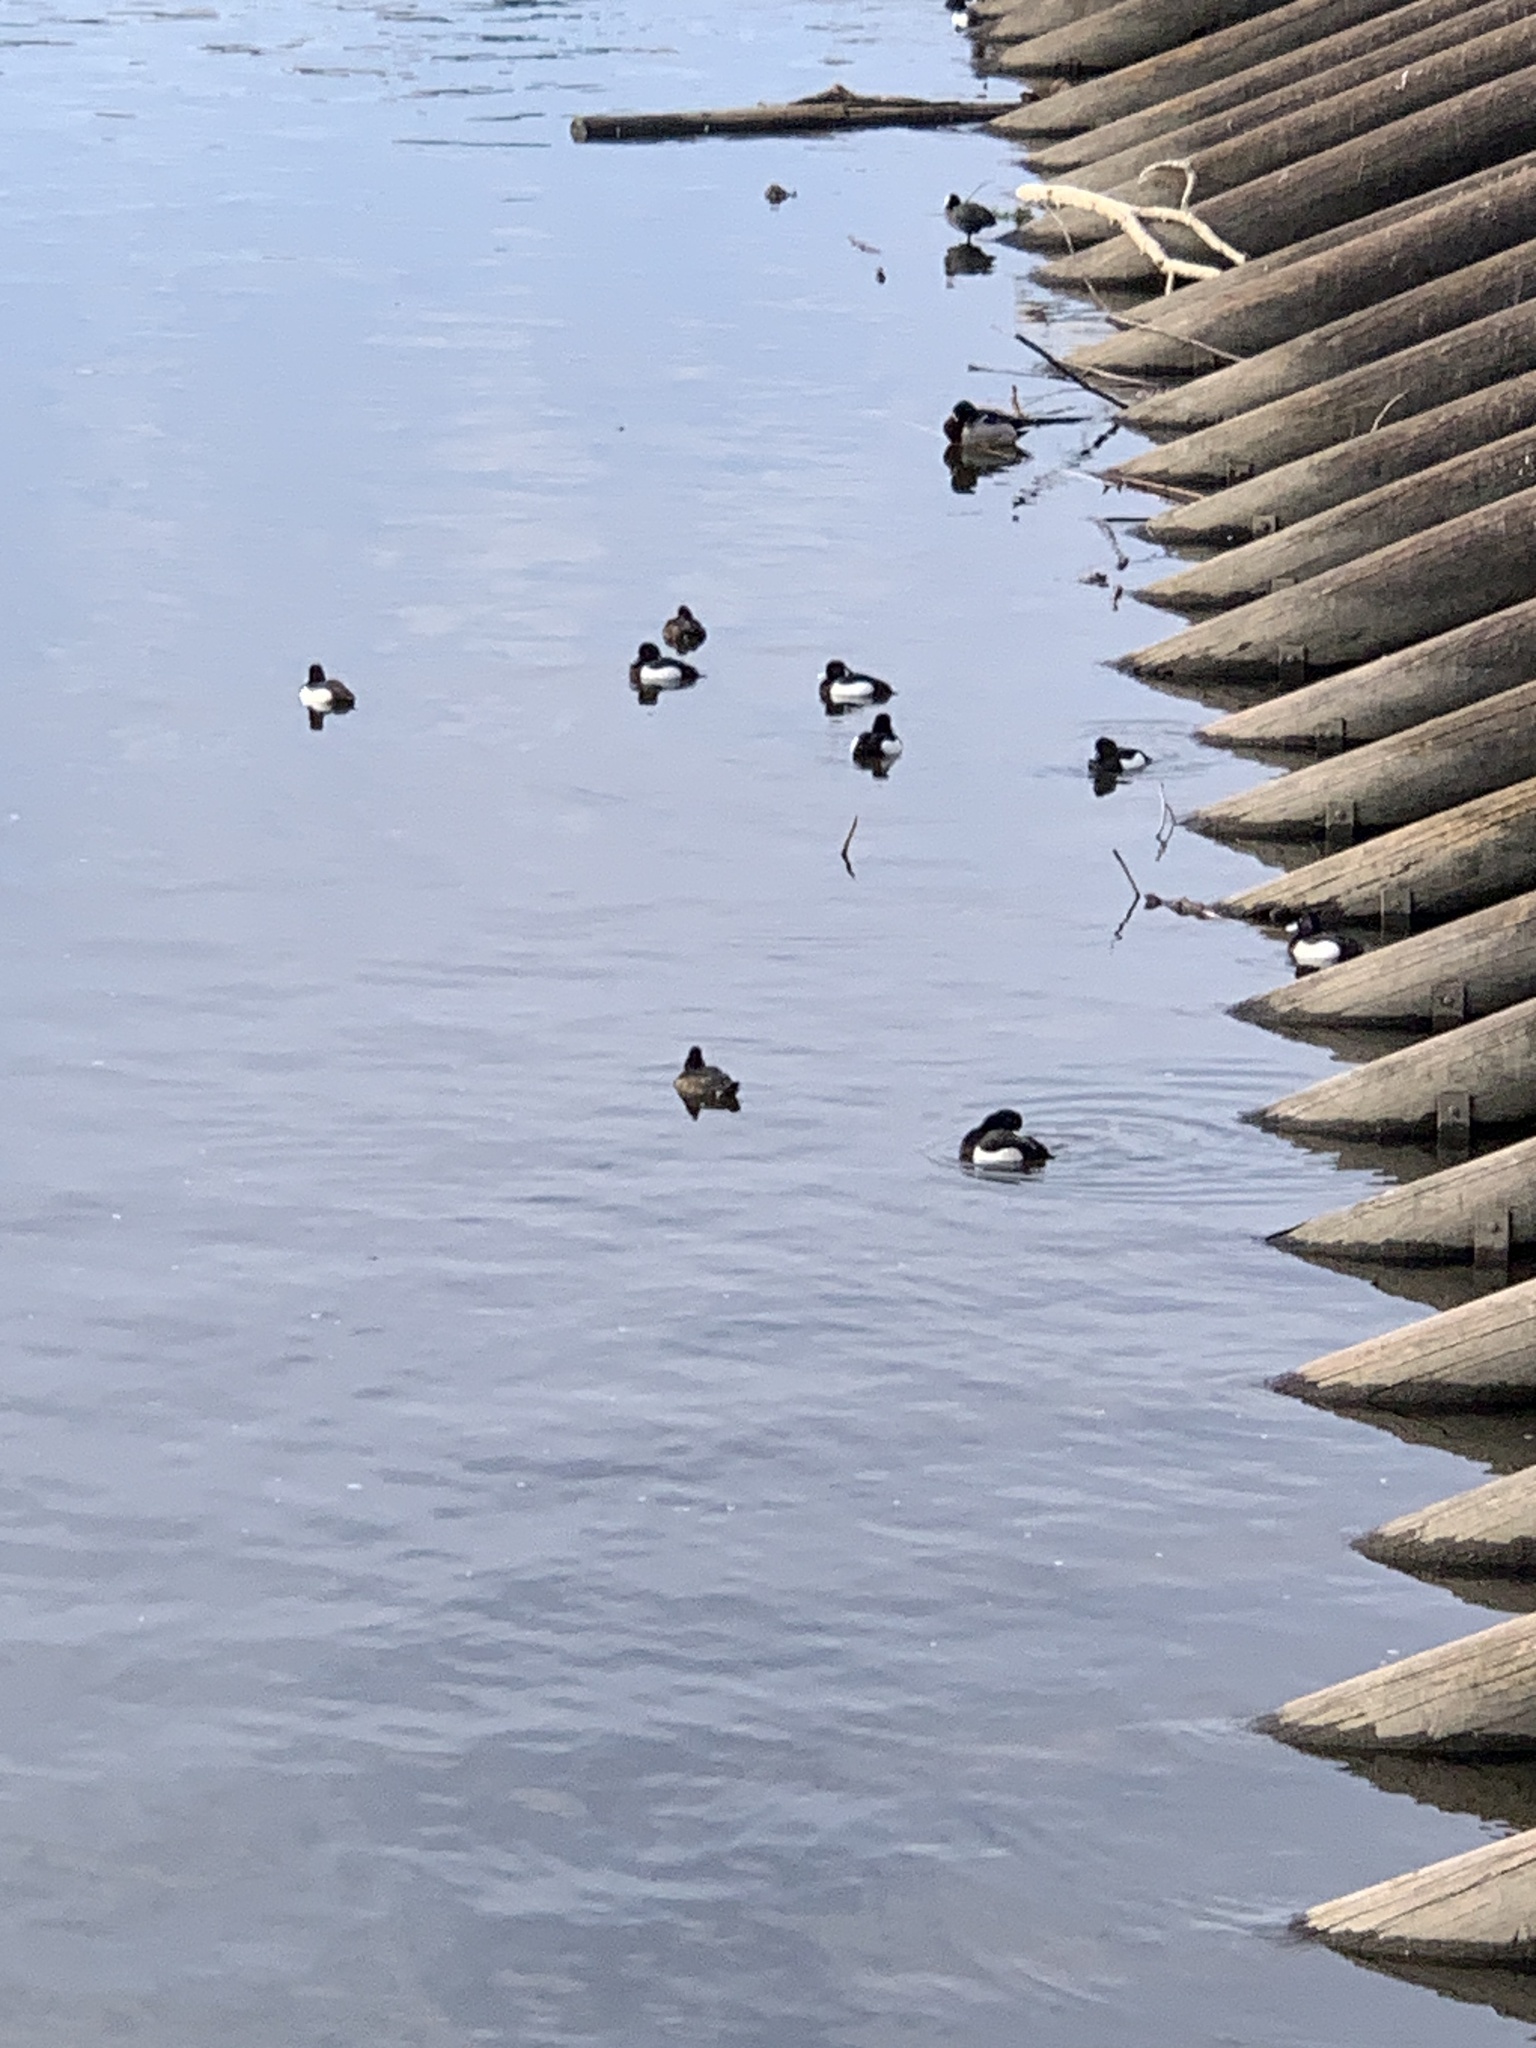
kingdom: Animalia
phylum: Chordata
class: Aves
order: Anseriformes
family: Anatidae
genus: Aythya
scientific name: Aythya fuligula
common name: Tufted duck
